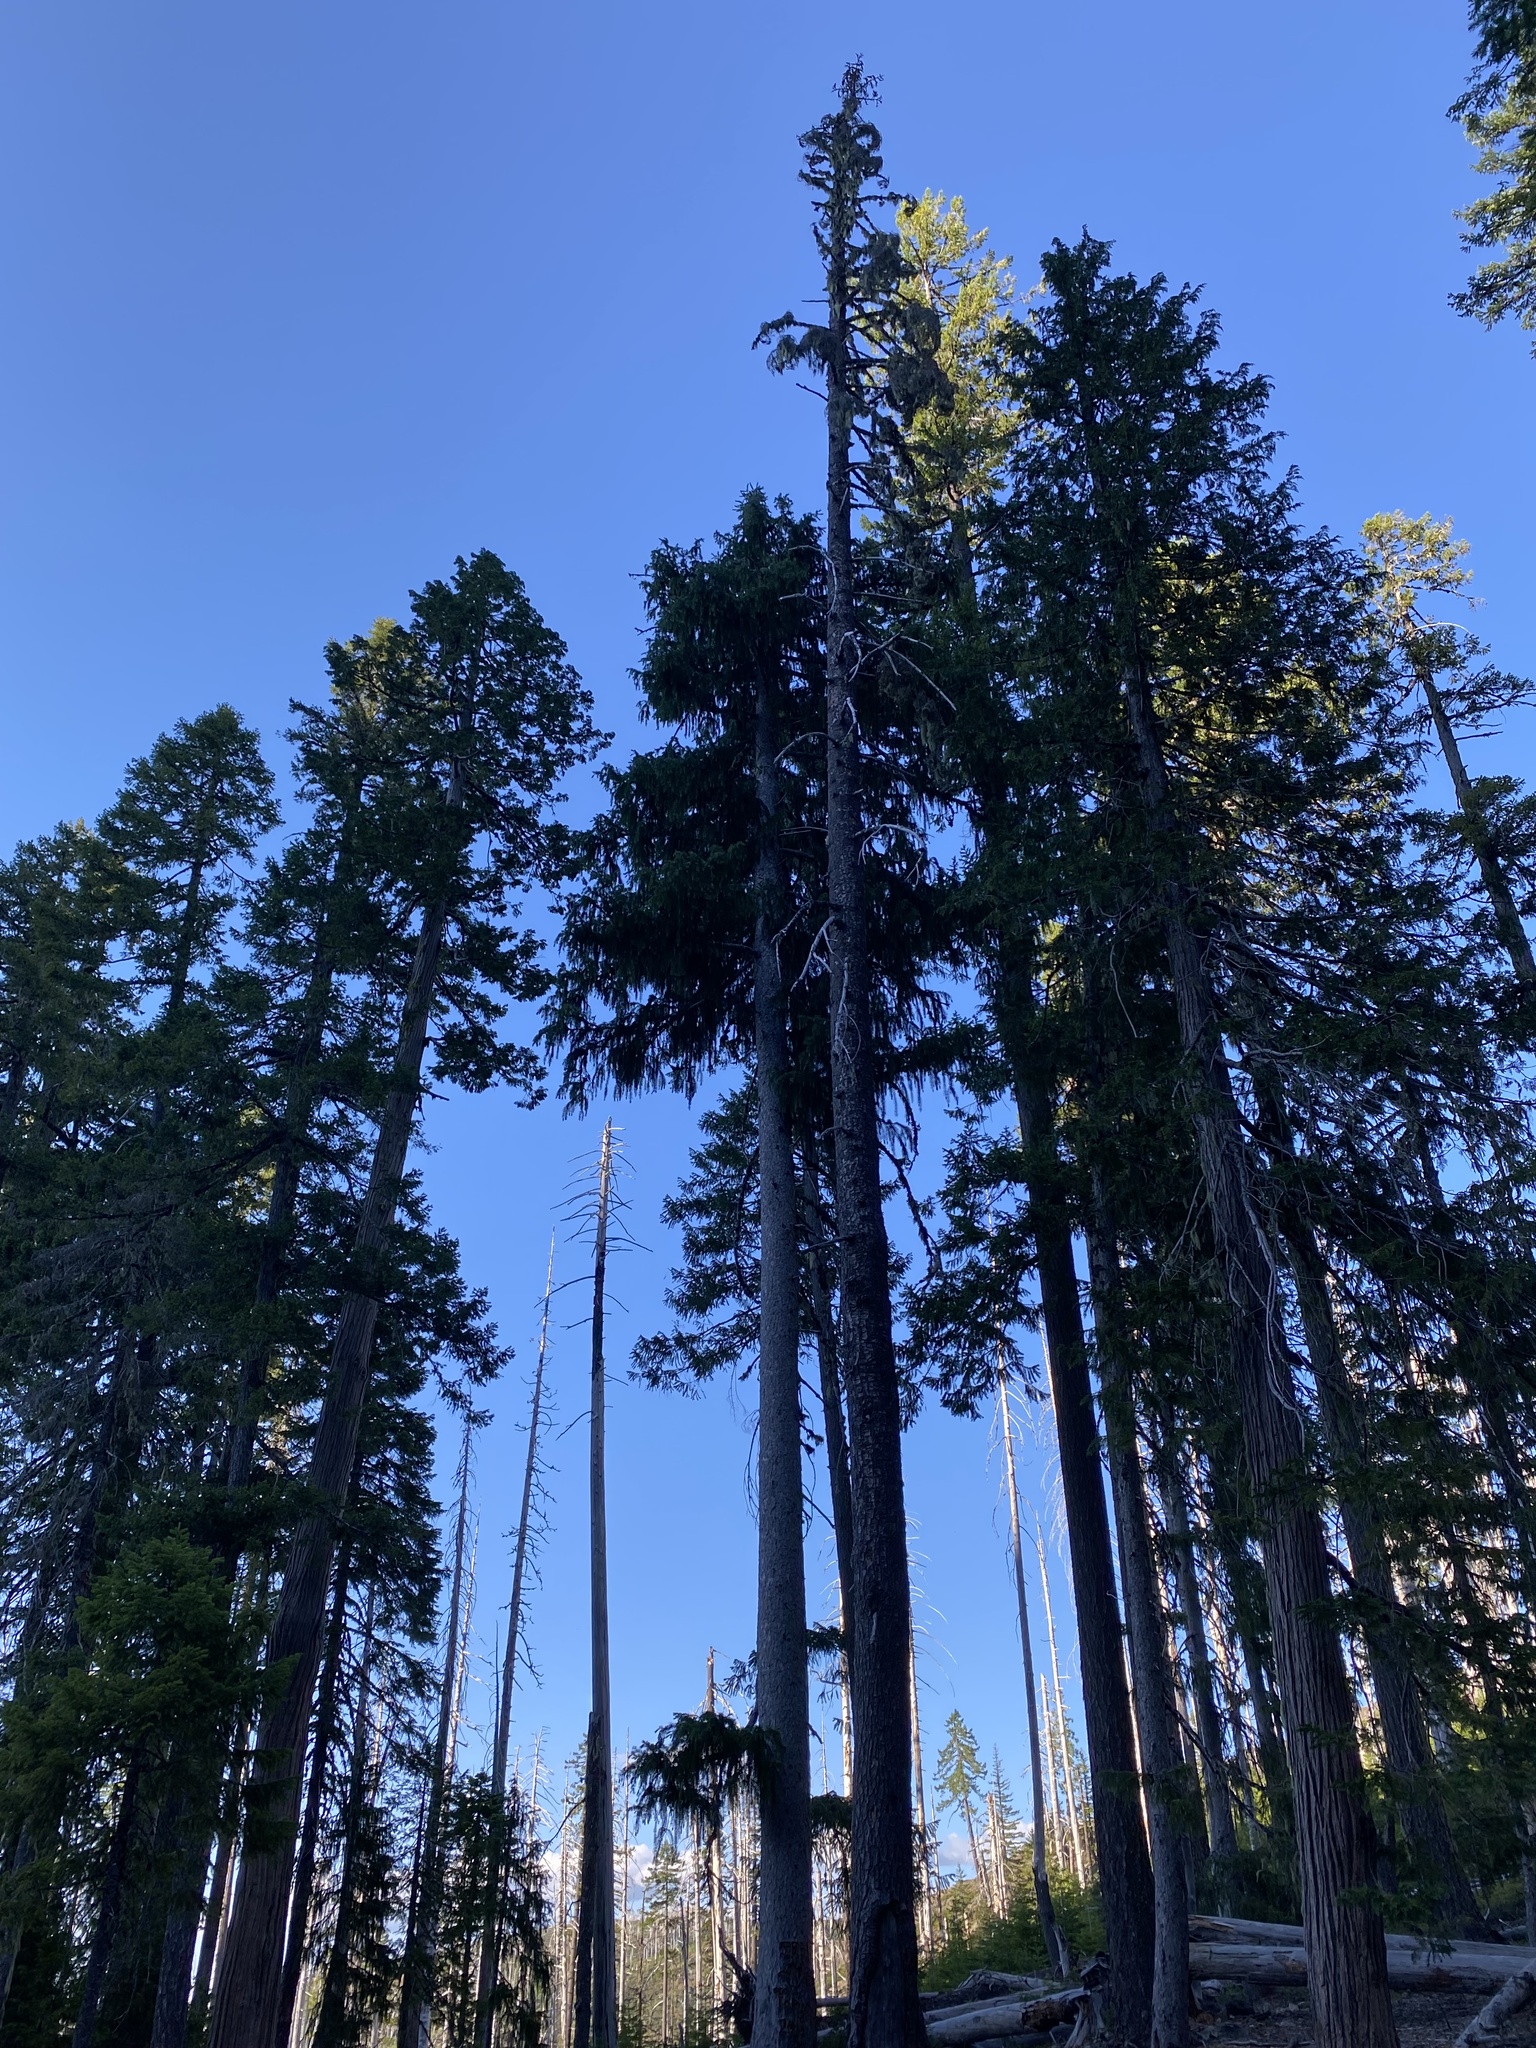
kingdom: Plantae
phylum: Tracheophyta
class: Pinopsida
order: Pinales
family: Pinaceae
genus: Picea
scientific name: Picea breweriana
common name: Brewer's spruce
